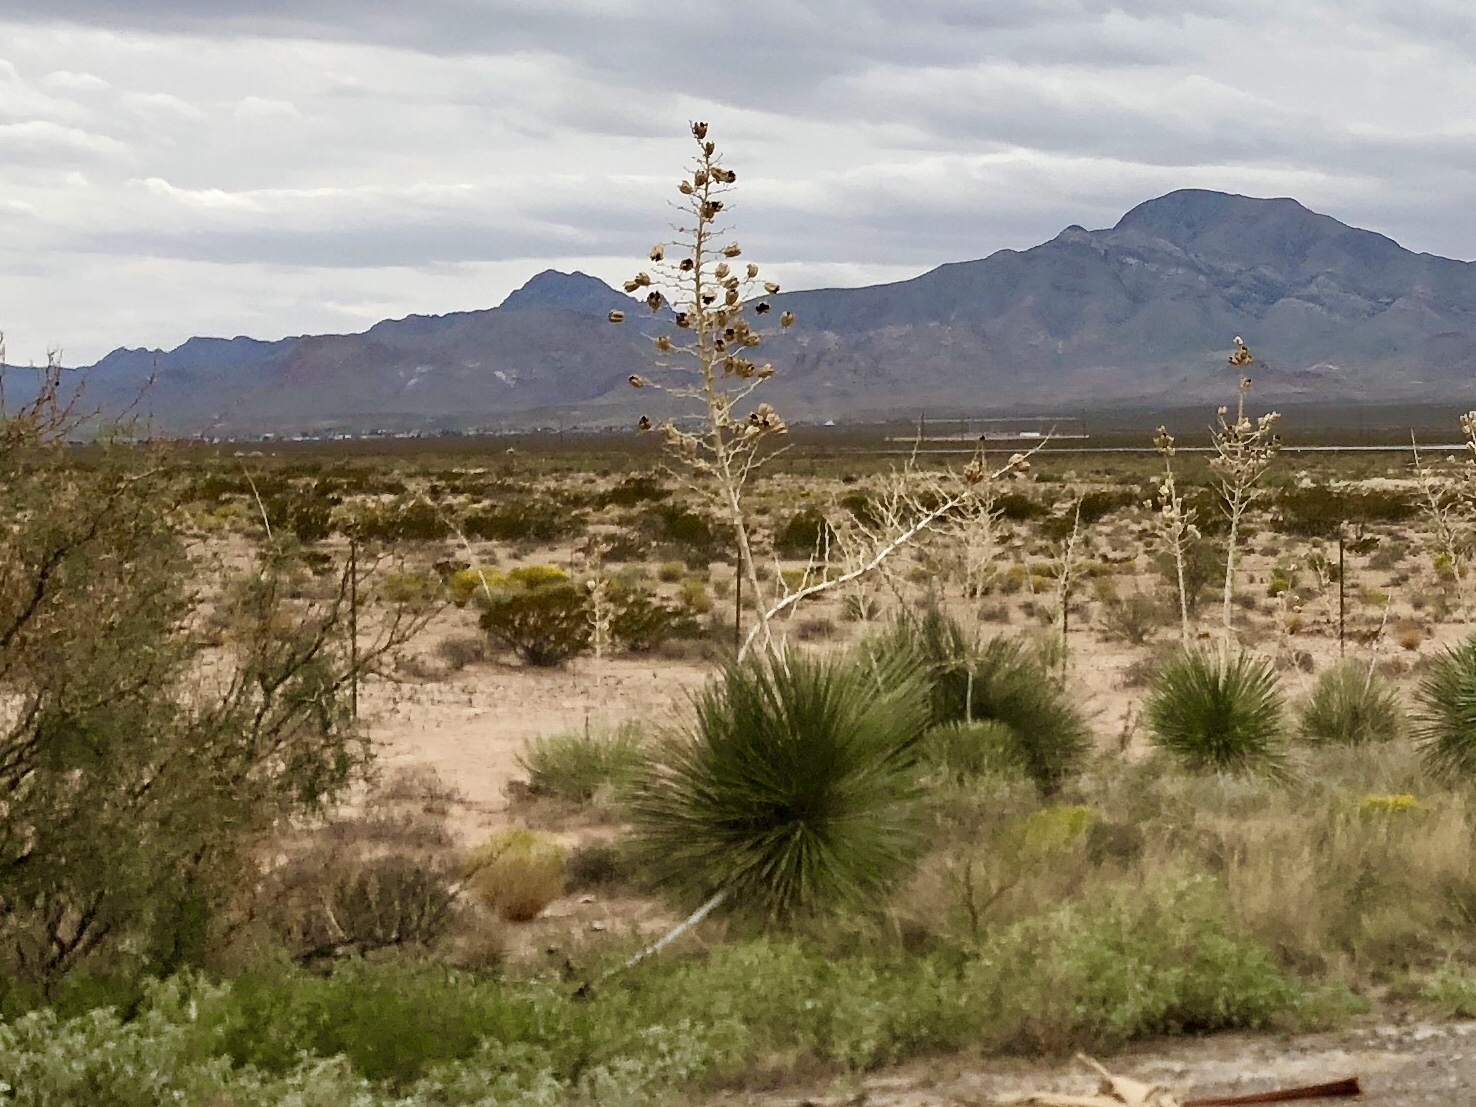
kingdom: Plantae
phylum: Tracheophyta
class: Liliopsida
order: Asparagales
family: Asparagaceae
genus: Yucca
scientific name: Yucca elata
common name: Palmella
